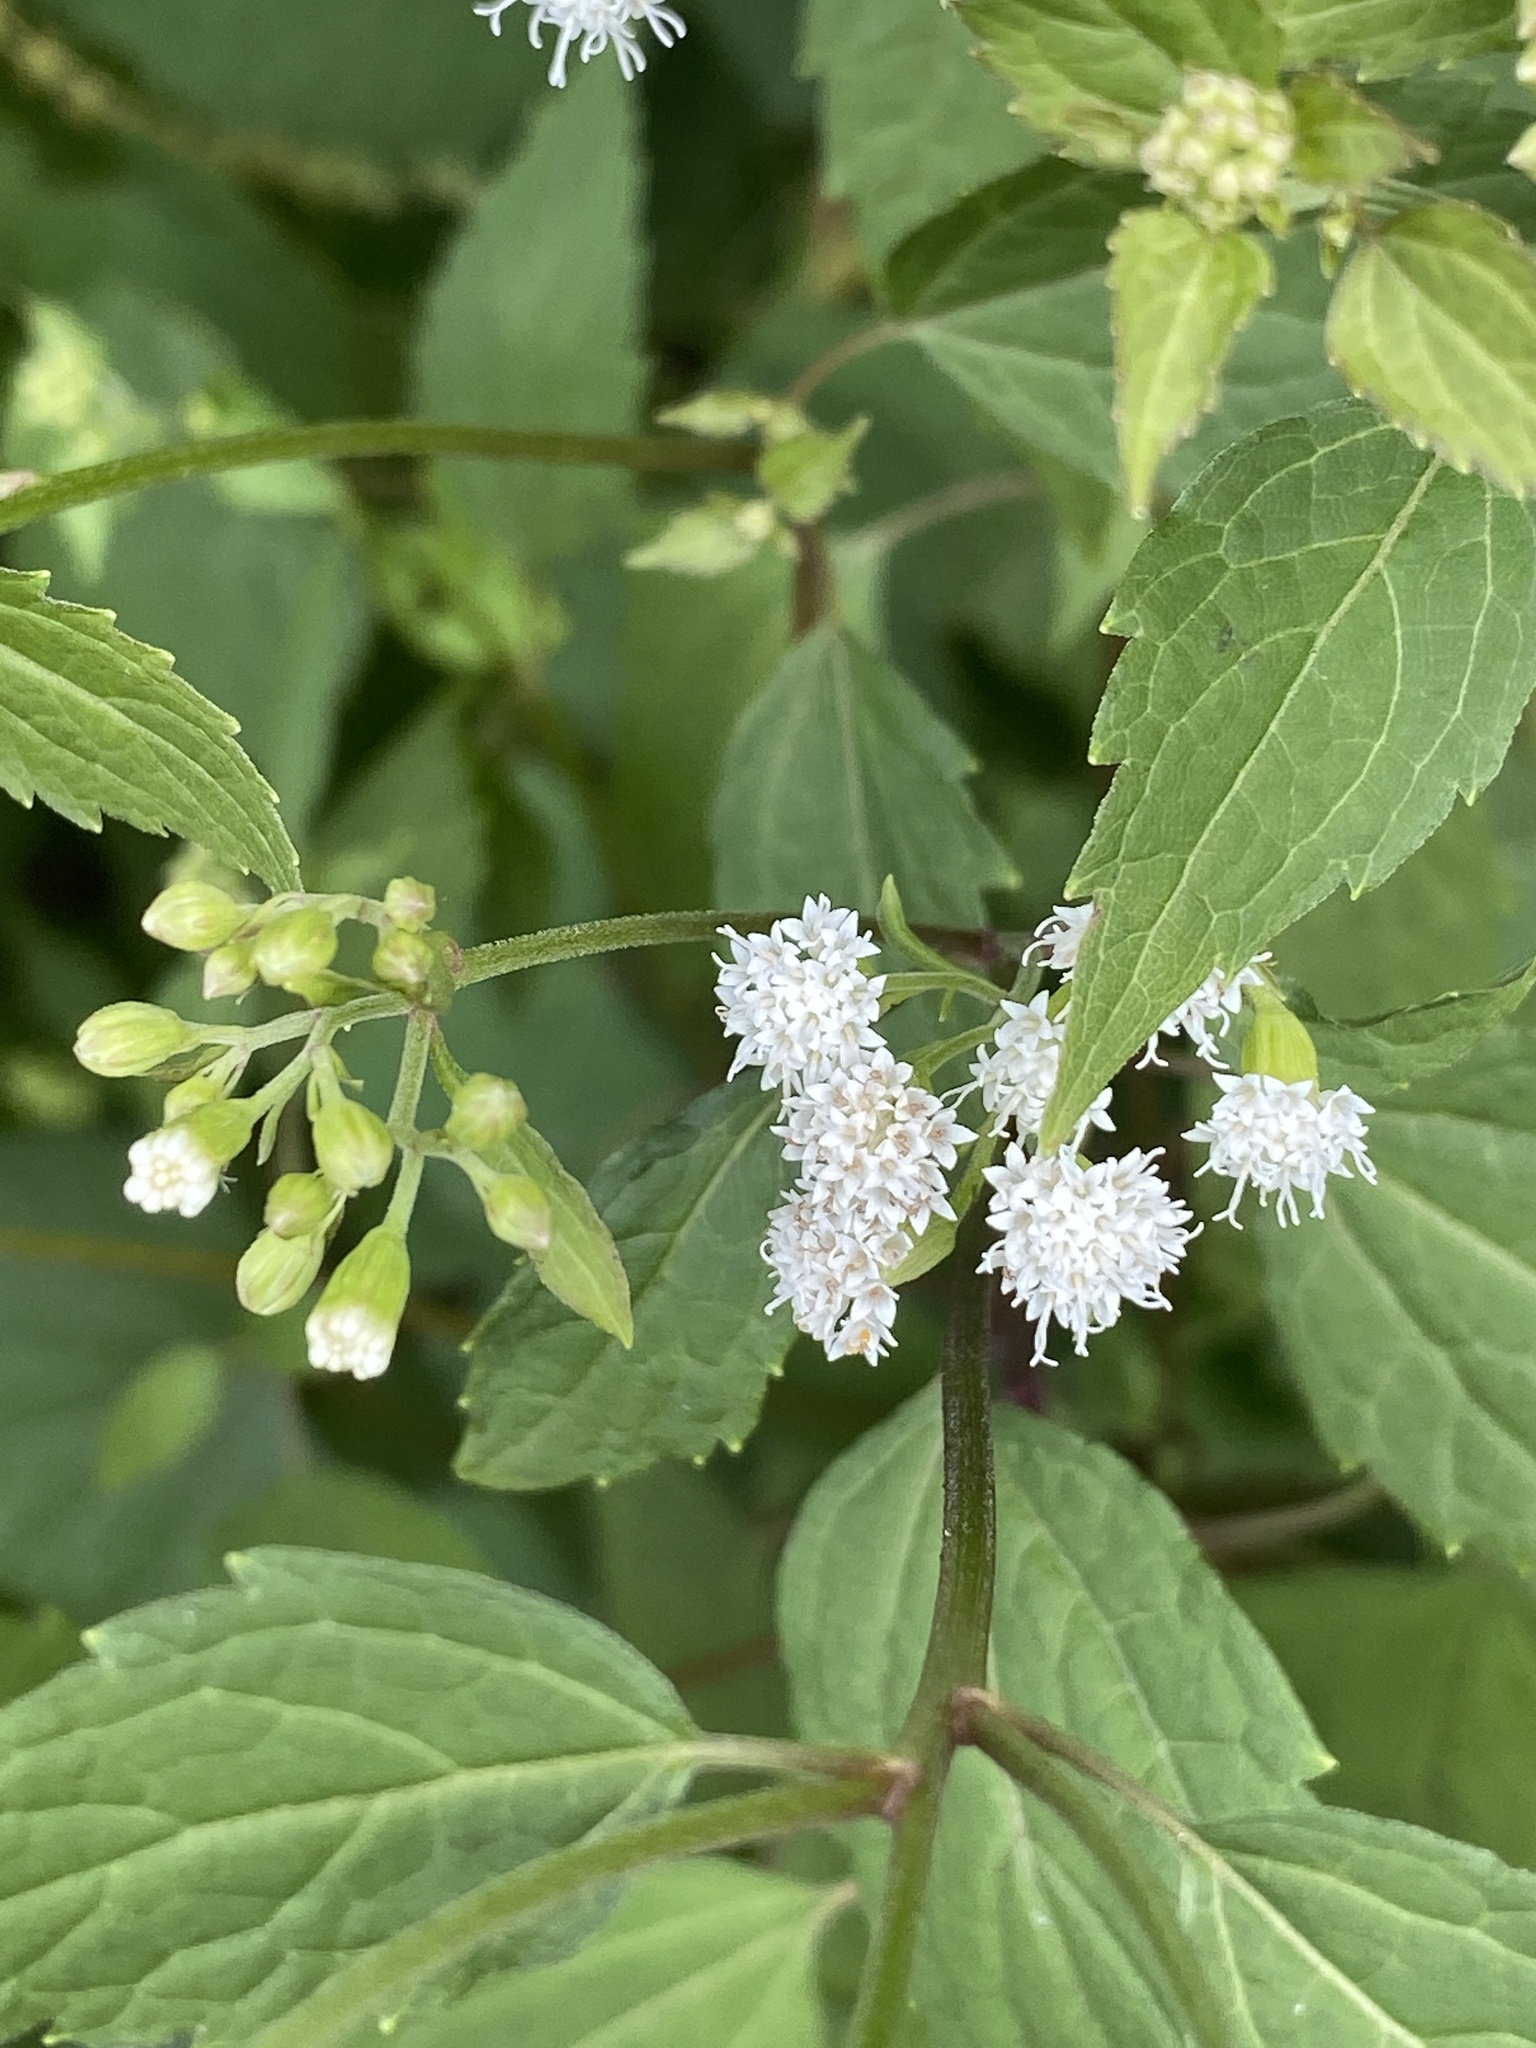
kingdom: Plantae
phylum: Tracheophyta
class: Magnoliopsida
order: Asterales
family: Asteraceae
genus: Ageratina
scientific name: Ageratina altissima
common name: White snakeroot
